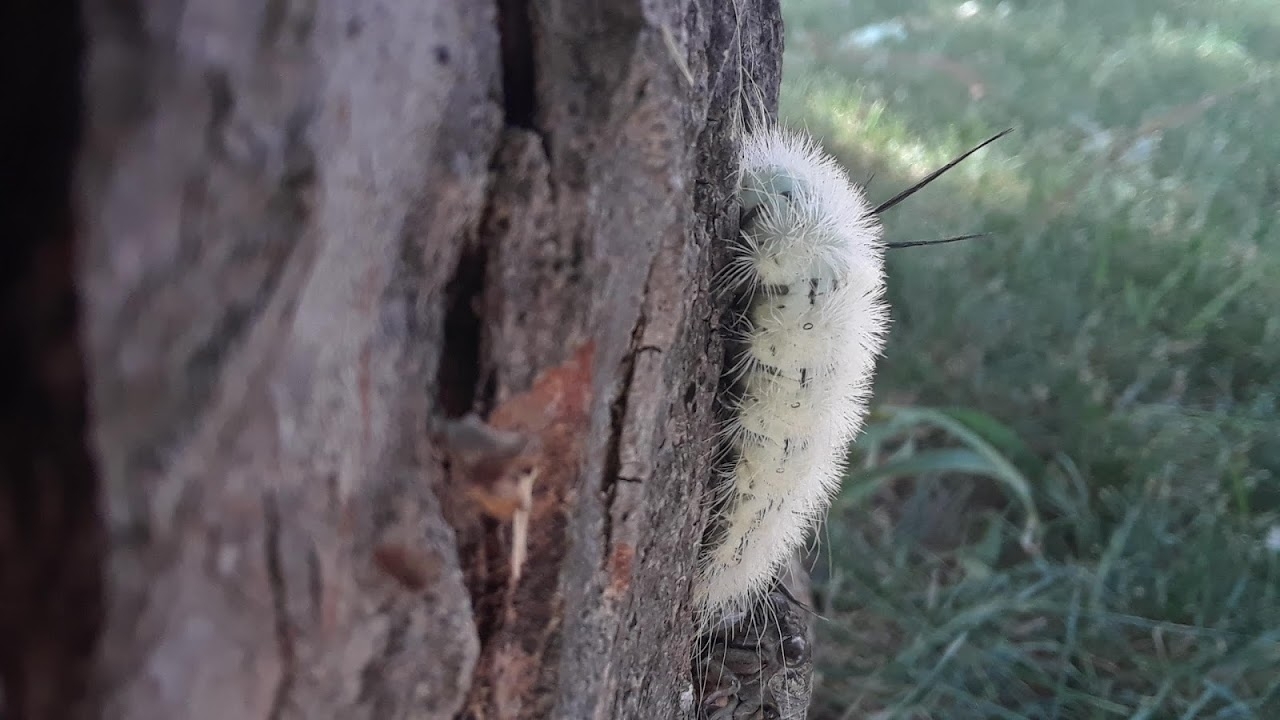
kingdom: Animalia
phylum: Arthropoda
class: Insecta
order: Lepidoptera
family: Noctuidae
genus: Acronicta
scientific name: Acronicta americana
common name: American dagger
